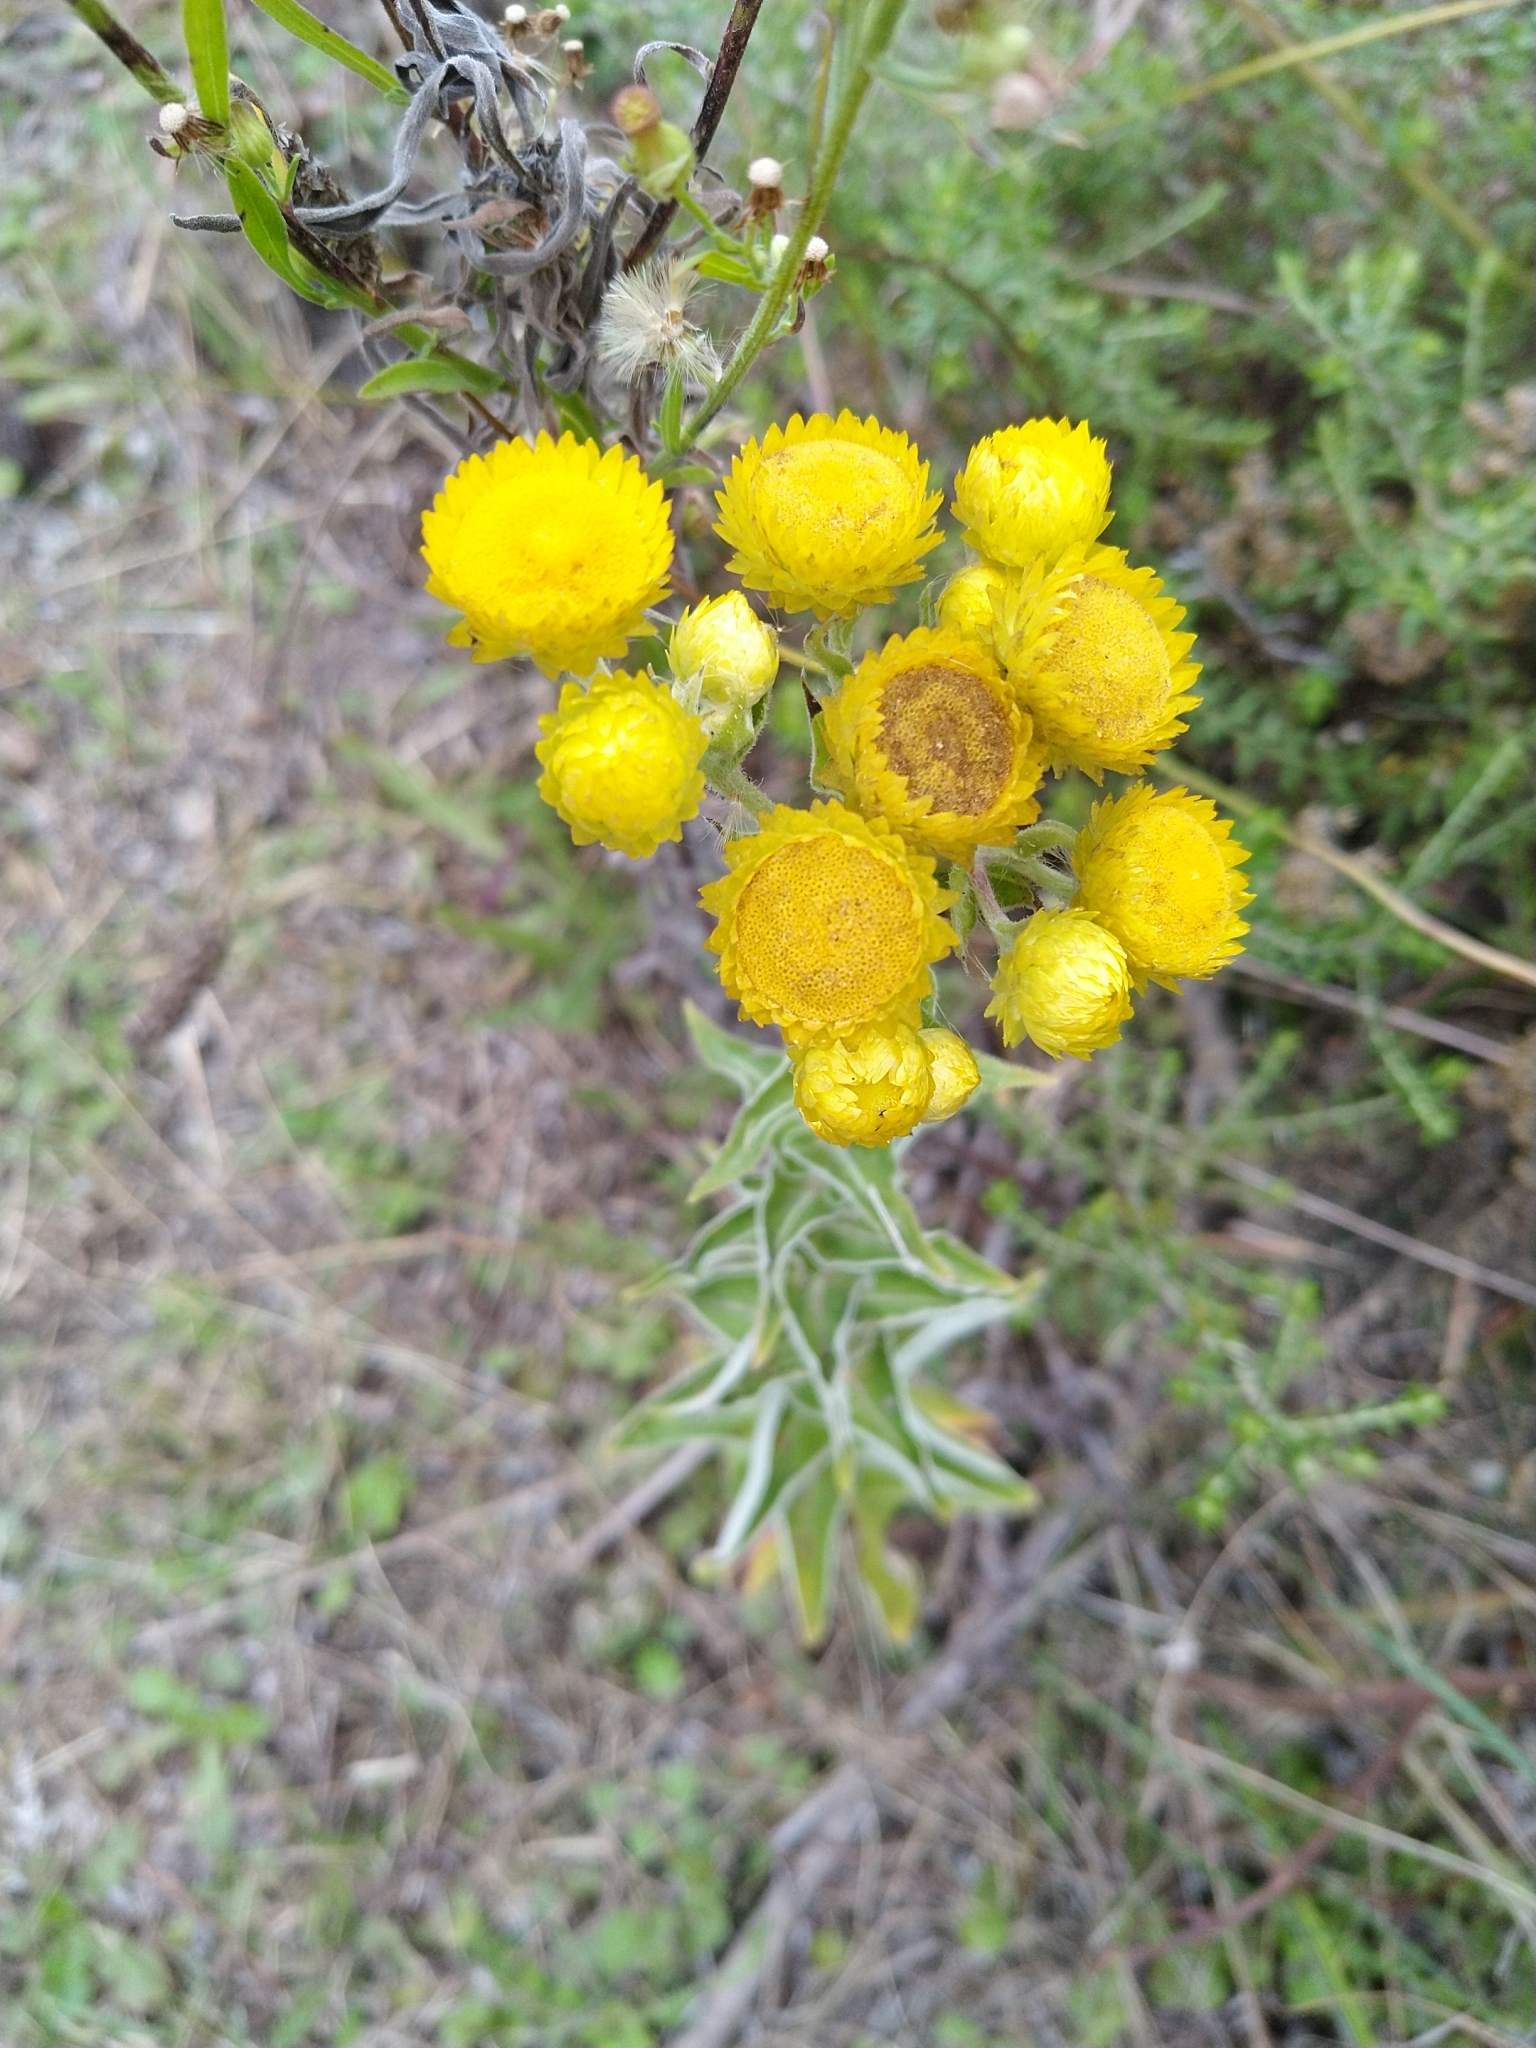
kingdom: Plantae
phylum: Tracheophyta
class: Magnoliopsida
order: Asterales
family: Asteraceae
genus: Helichrysum
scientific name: Helichrysum foetidum
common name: Stinking everlasting
